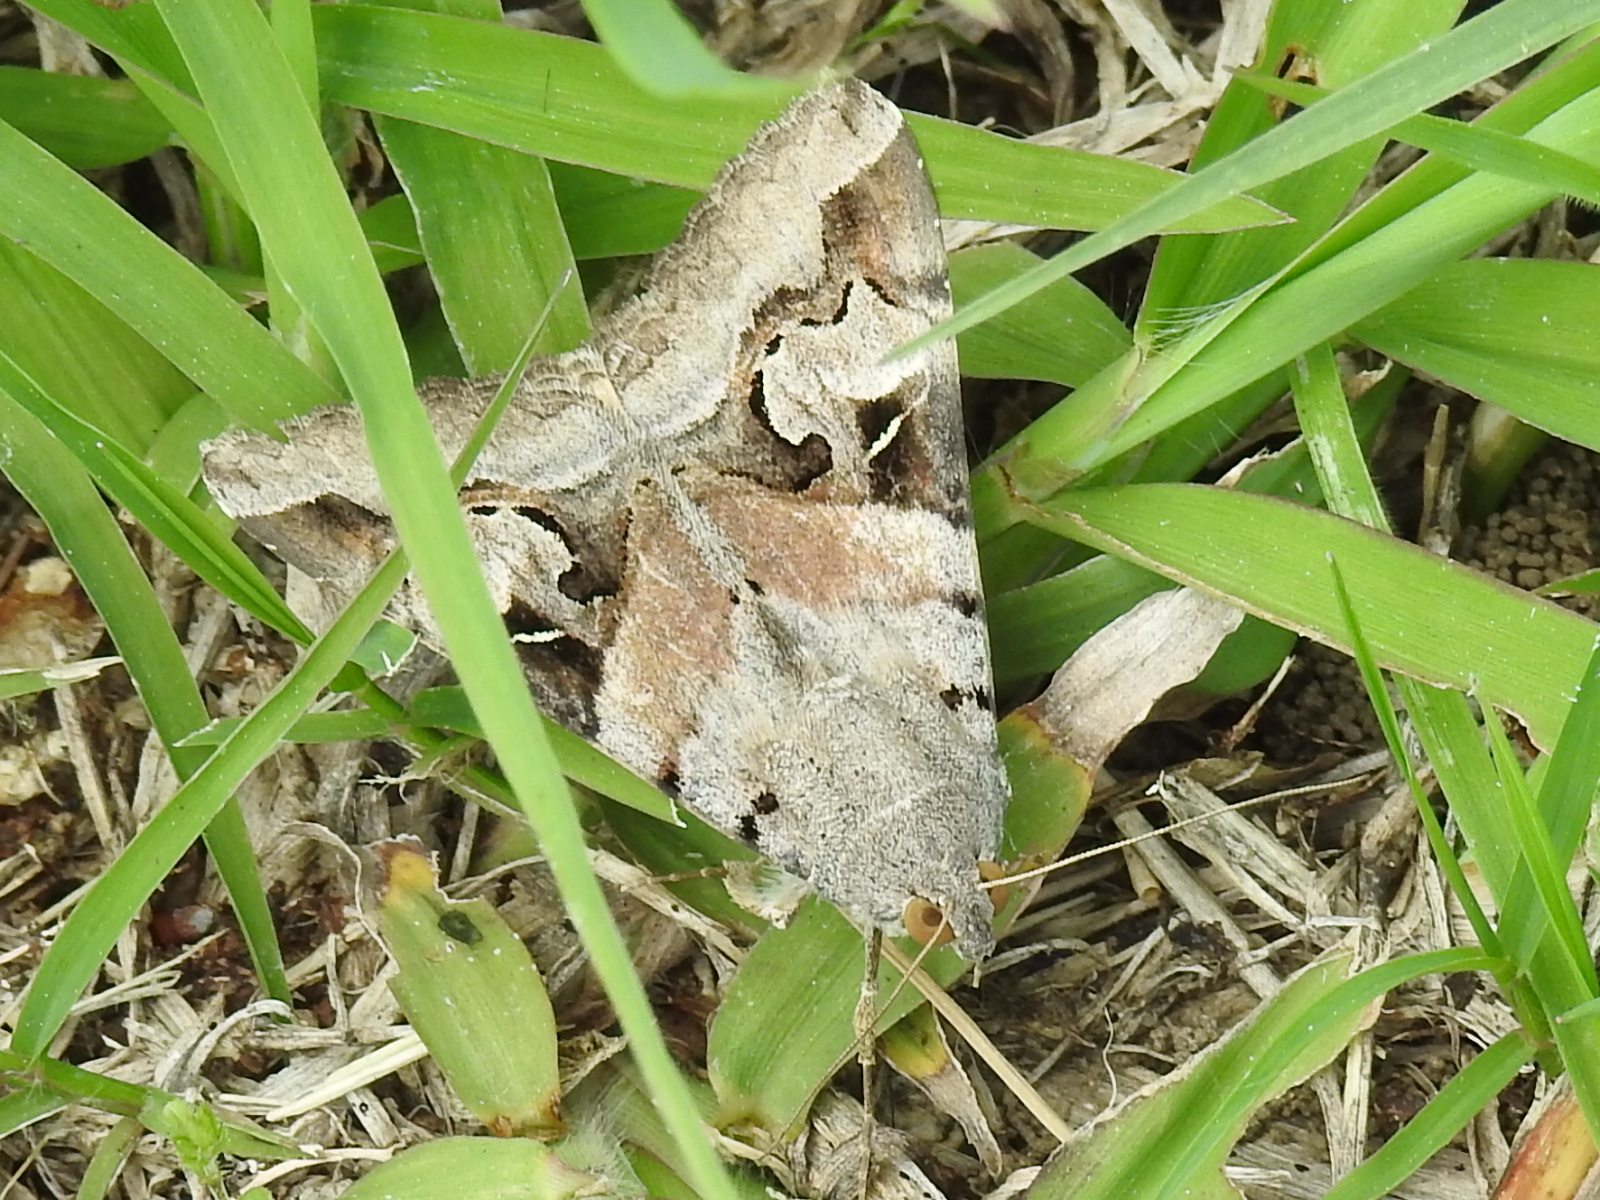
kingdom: Animalia
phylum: Arthropoda
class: Insecta
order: Lepidoptera
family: Erebidae
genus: Melipotis
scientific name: Melipotis indomita
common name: Moth
